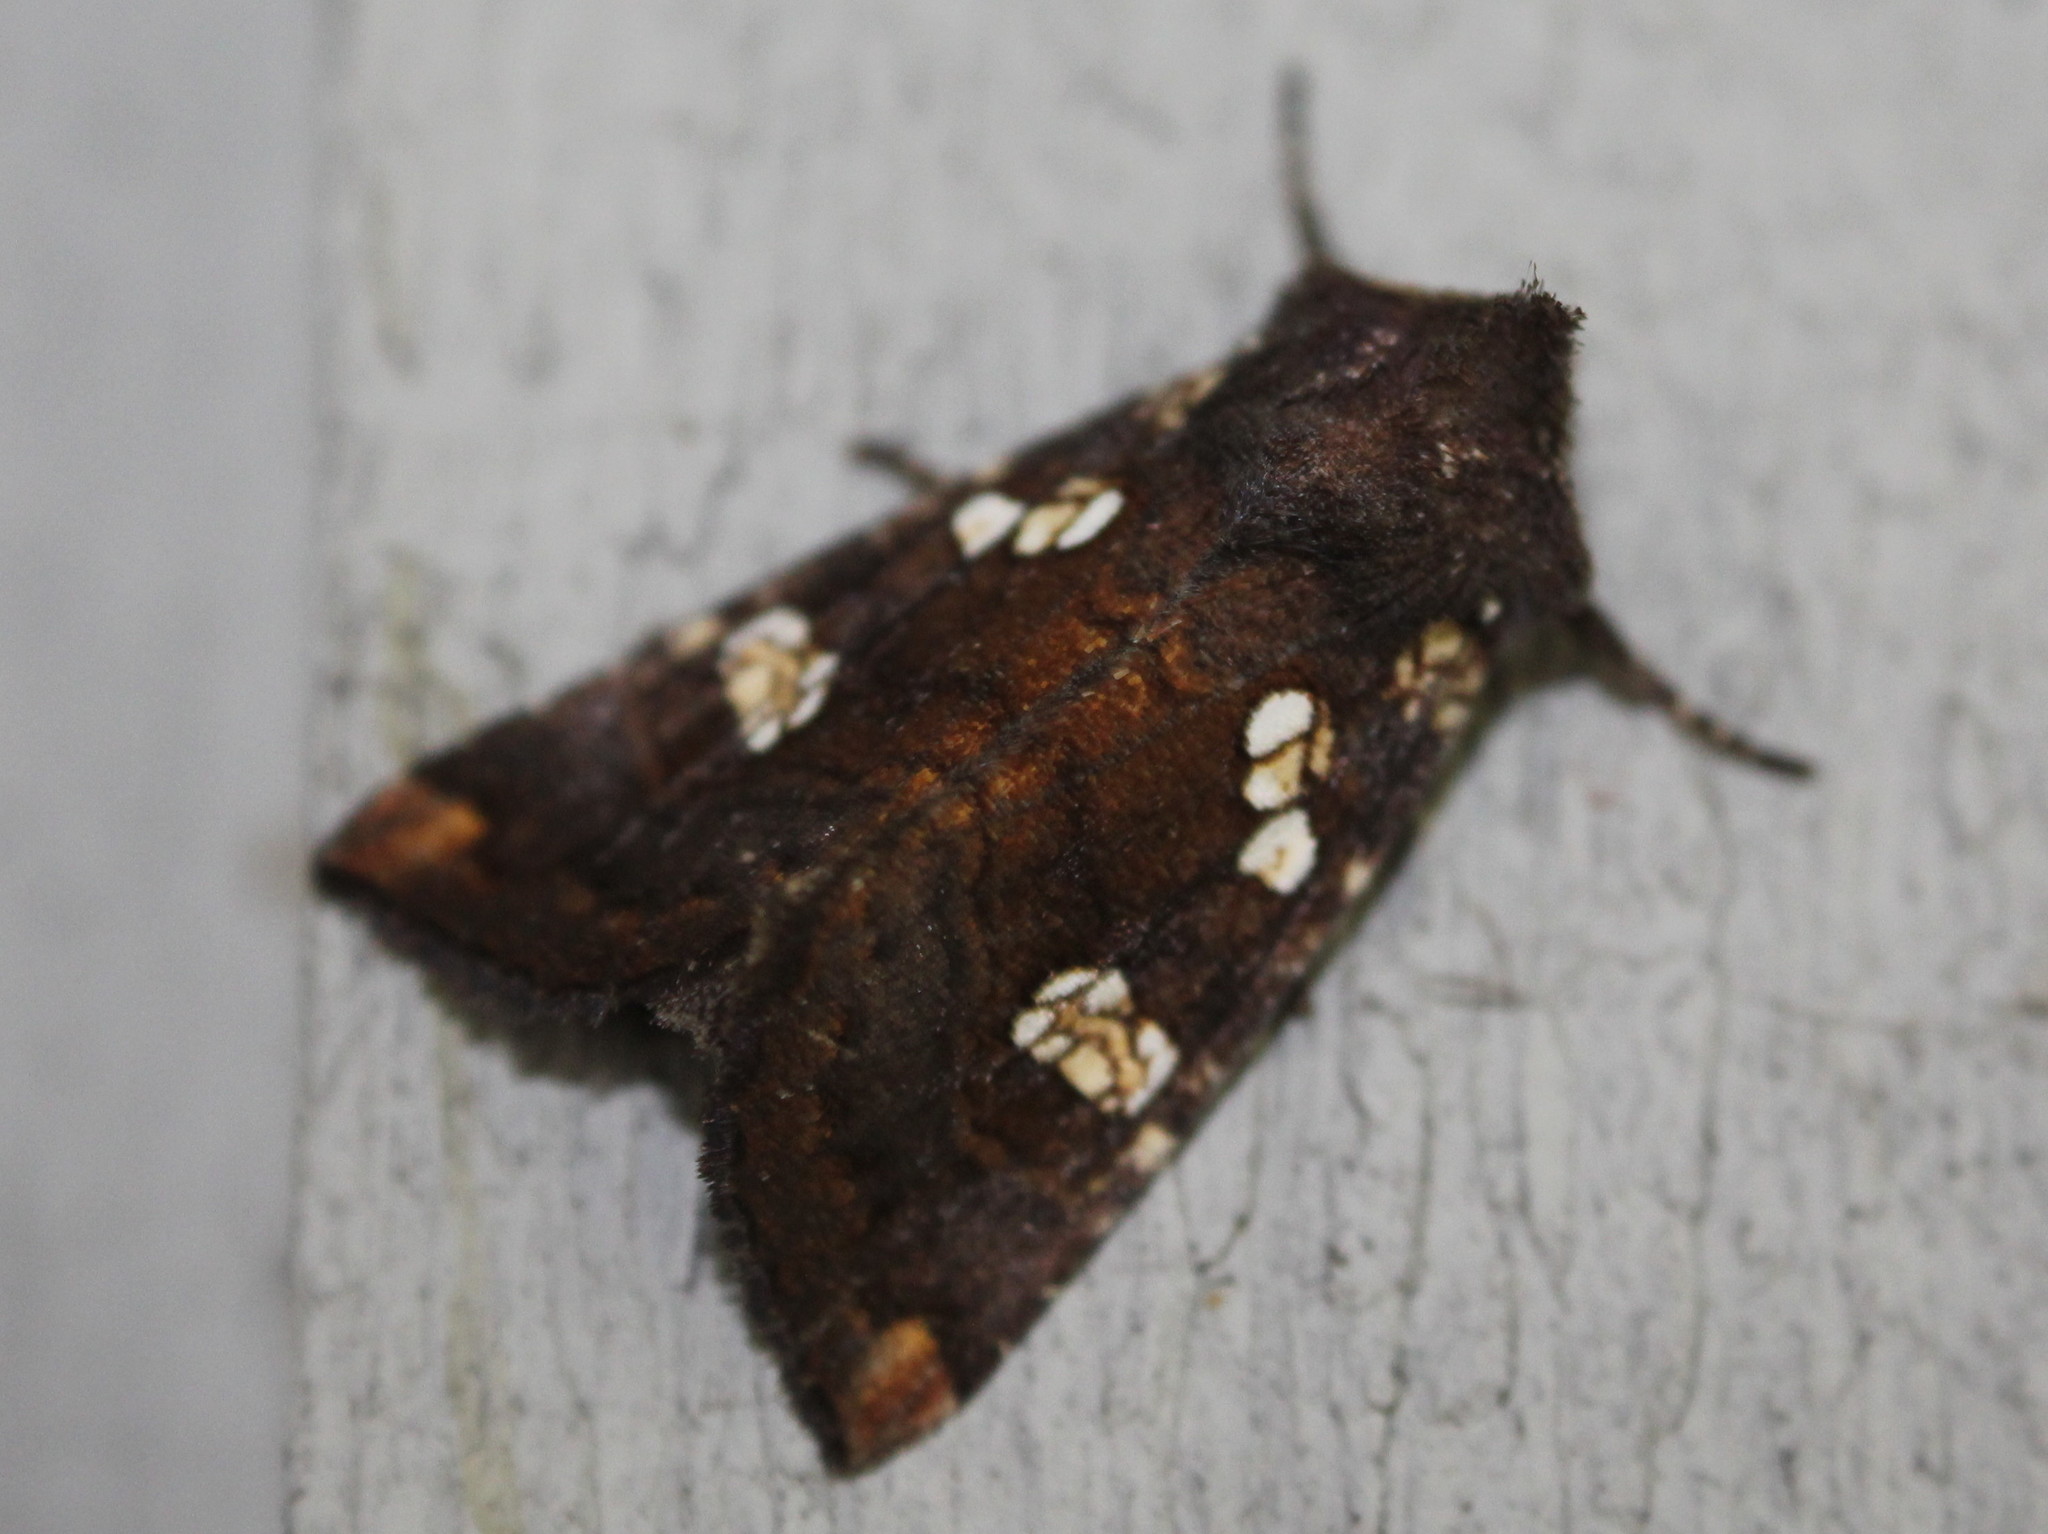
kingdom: Animalia
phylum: Arthropoda
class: Insecta
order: Lepidoptera
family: Noctuidae
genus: Papaipema
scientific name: Papaipema unimoda
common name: Meadow rue borer moth
